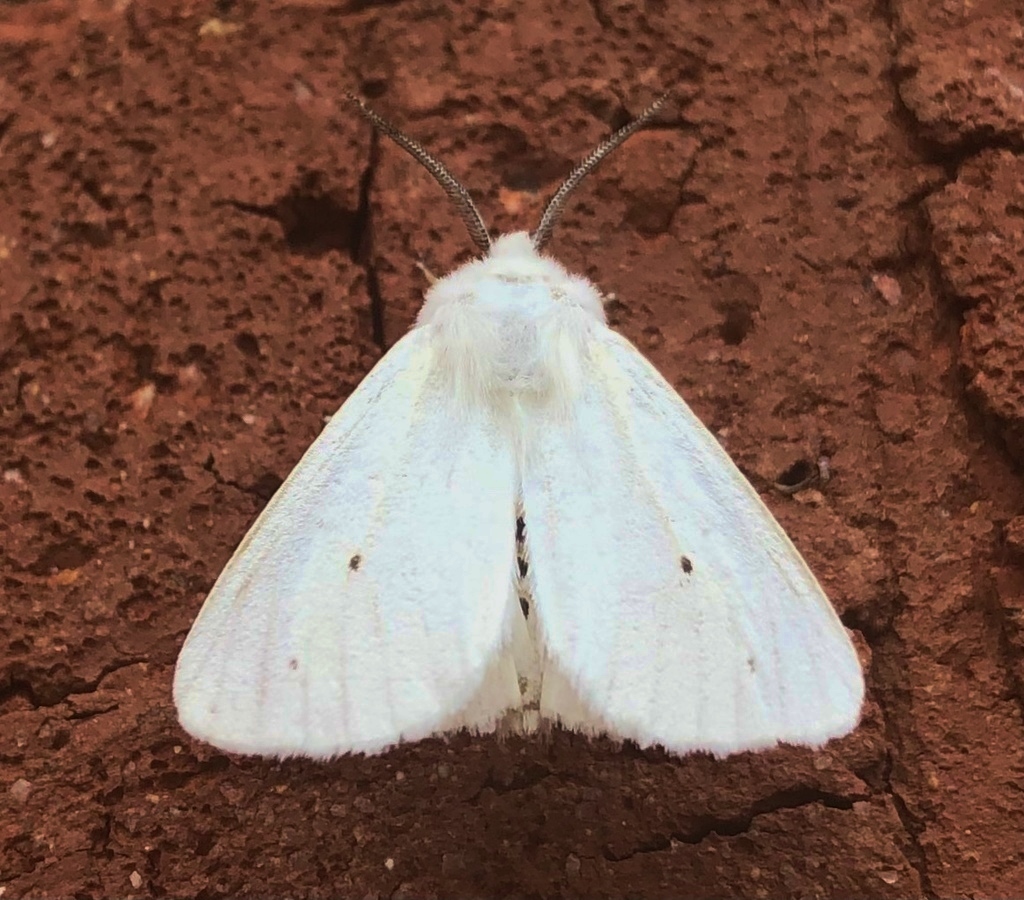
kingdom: Animalia
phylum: Arthropoda
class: Insecta
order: Lepidoptera
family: Erebidae
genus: Spilosoma
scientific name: Spilosoma virginica
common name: Virginia tiger moth
